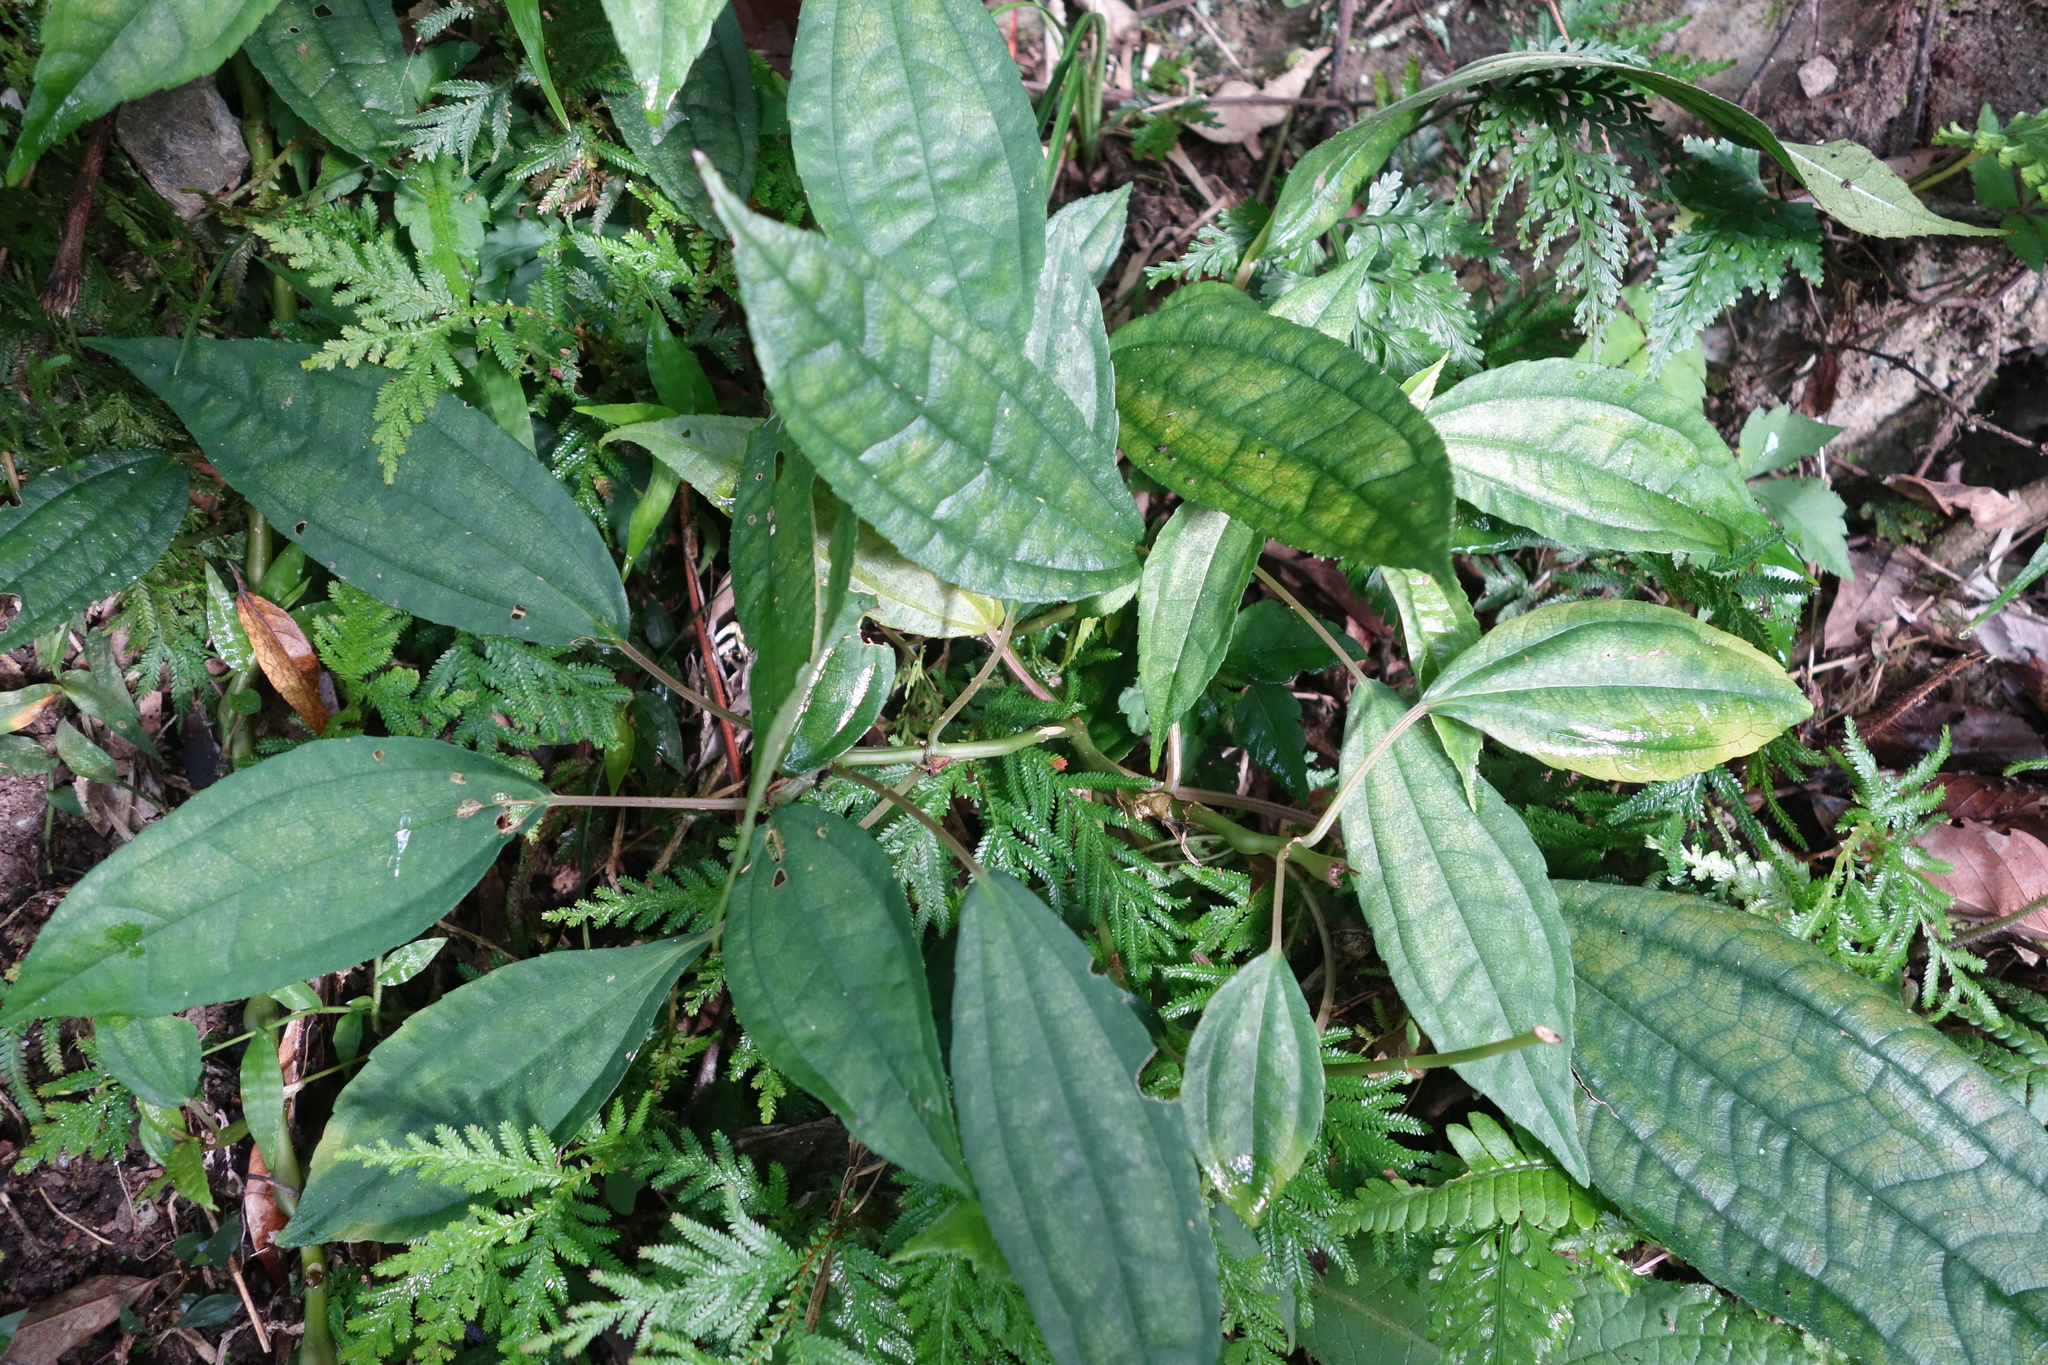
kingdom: Plantae
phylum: Tracheophyta
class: Magnoliopsida
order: Rosales
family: Urticaceae
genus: Pilea
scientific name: Pilea rotundinucula
